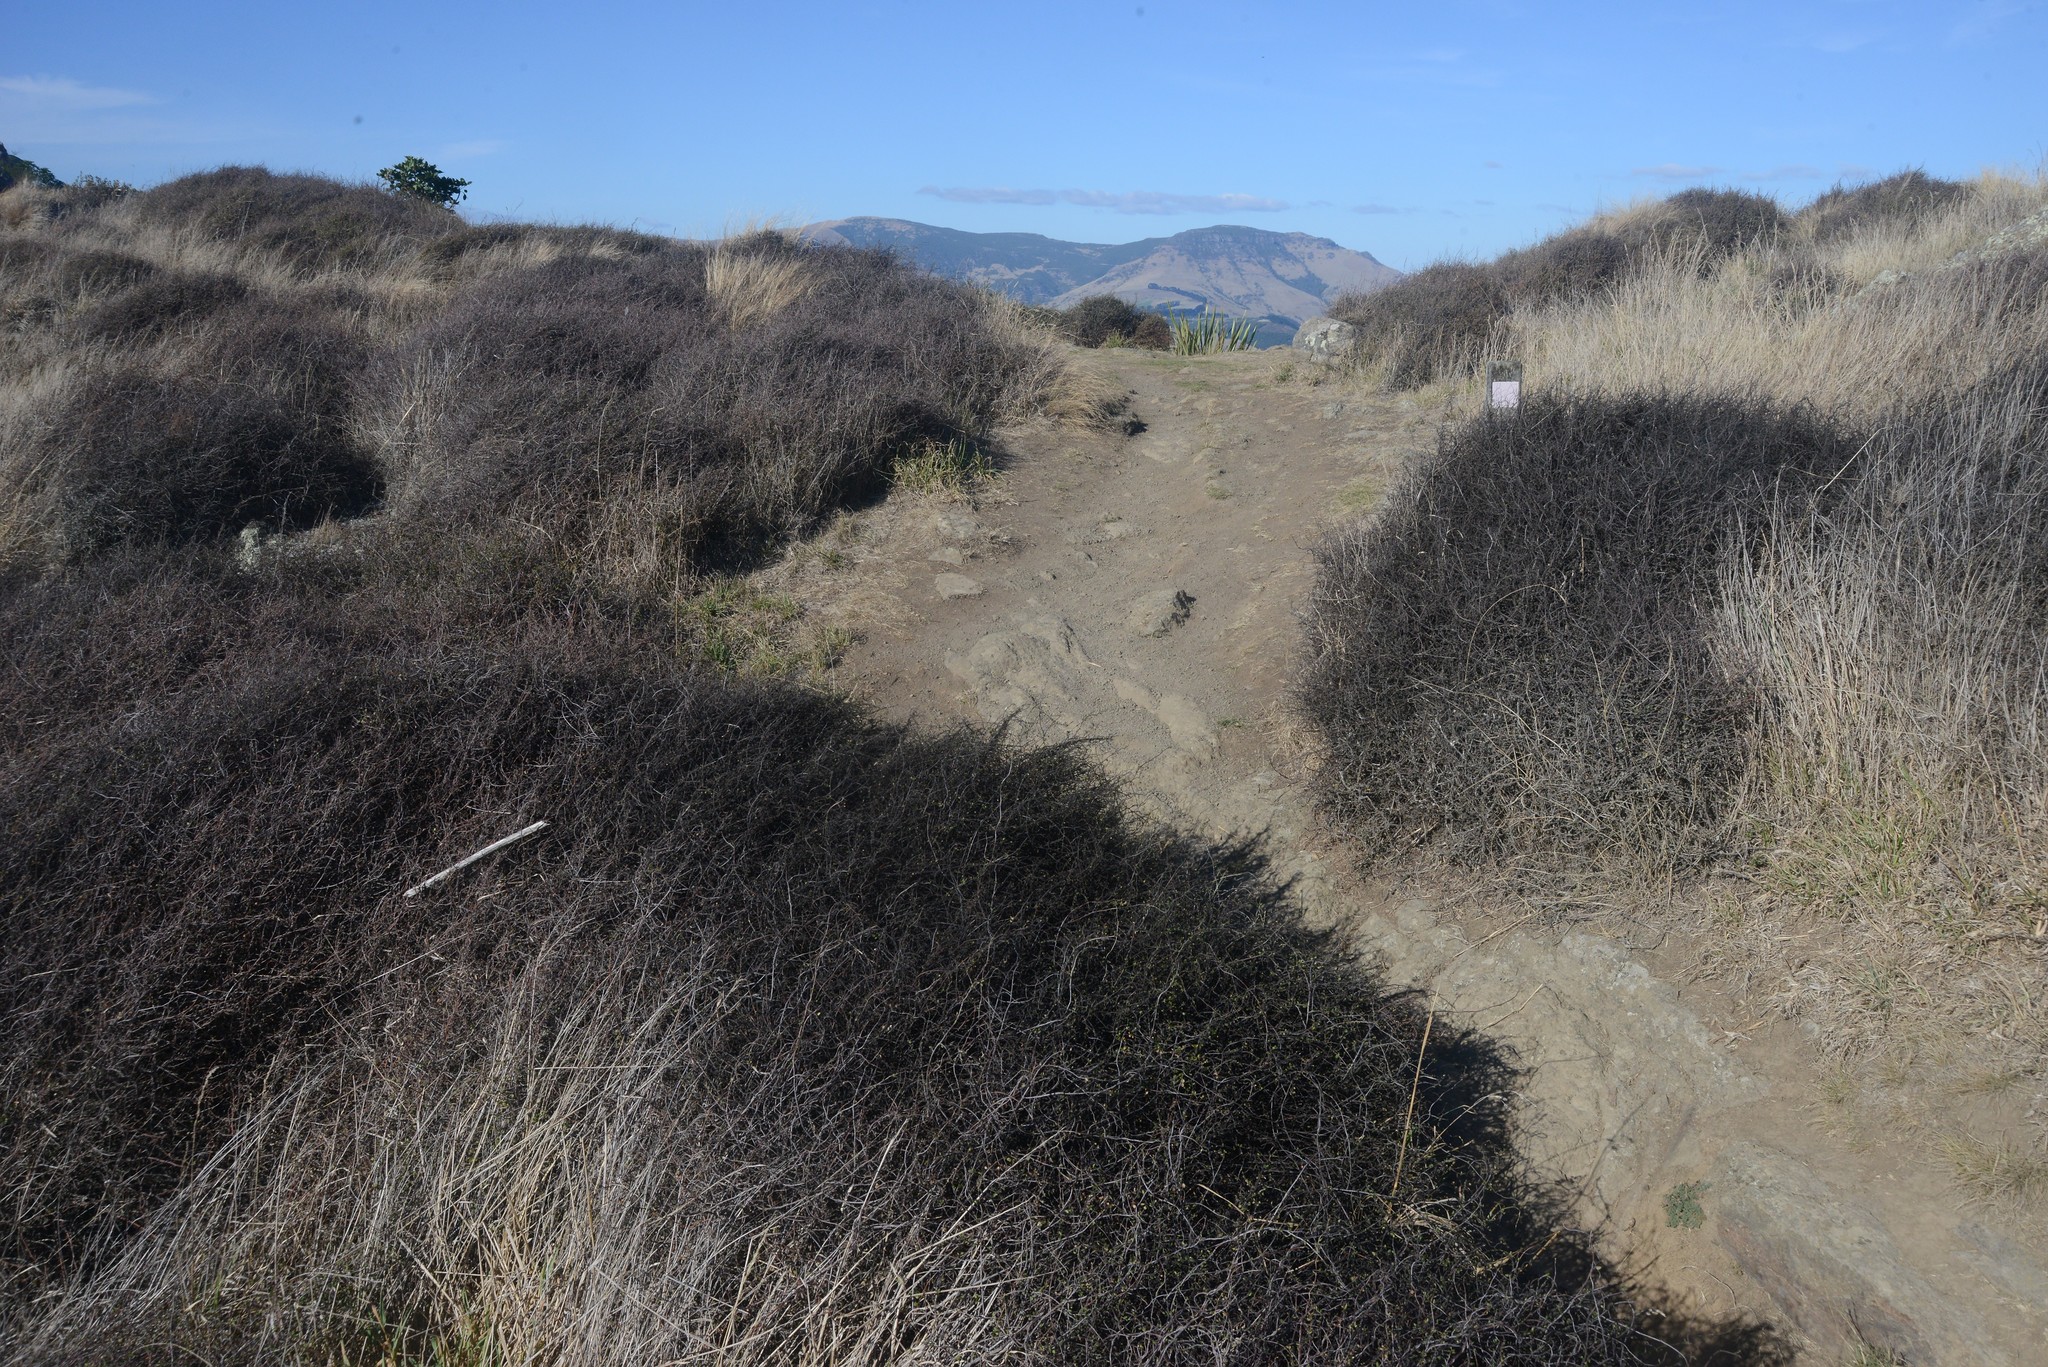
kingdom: Plantae
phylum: Tracheophyta
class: Magnoliopsida
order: Caryophyllales
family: Polygonaceae
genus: Muehlenbeckia
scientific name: Muehlenbeckia complexa
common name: Wireplant
